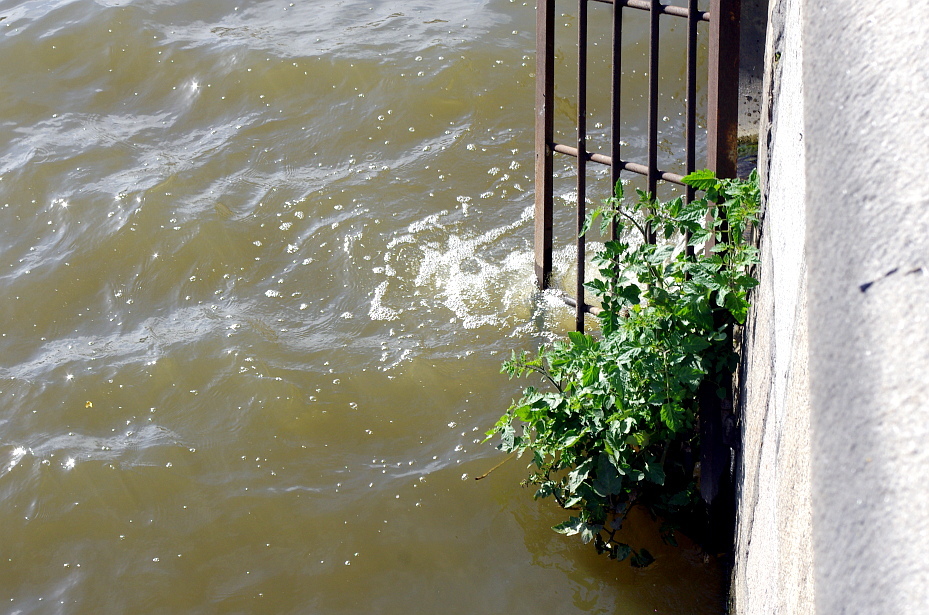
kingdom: Plantae
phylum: Tracheophyta
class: Magnoliopsida
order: Solanales
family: Solanaceae
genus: Solanum
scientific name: Solanum lycopersicum
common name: Garden tomato
